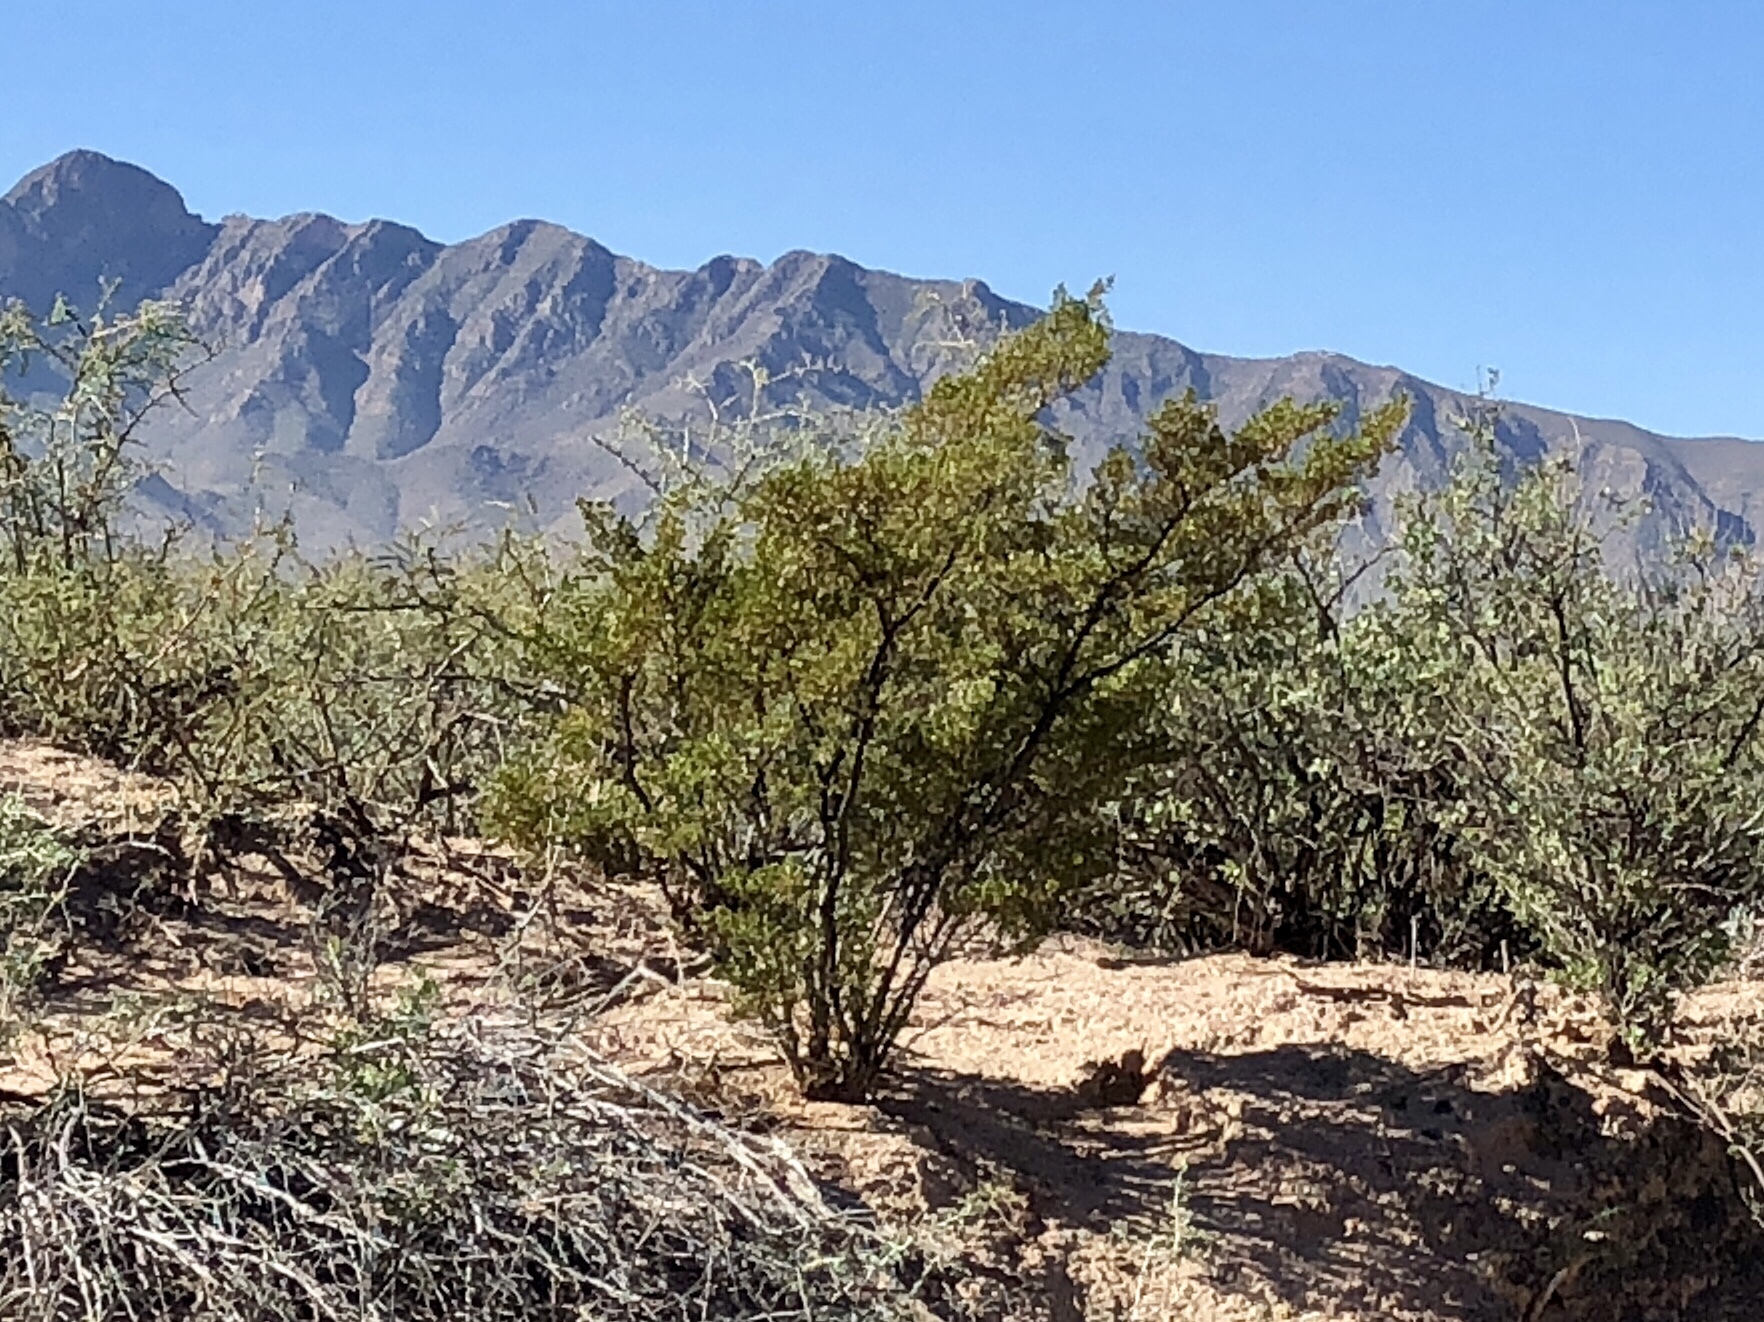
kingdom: Plantae
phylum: Tracheophyta
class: Magnoliopsida
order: Zygophyllales
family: Zygophyllaceae
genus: Larrea
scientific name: Larrea tridentata
